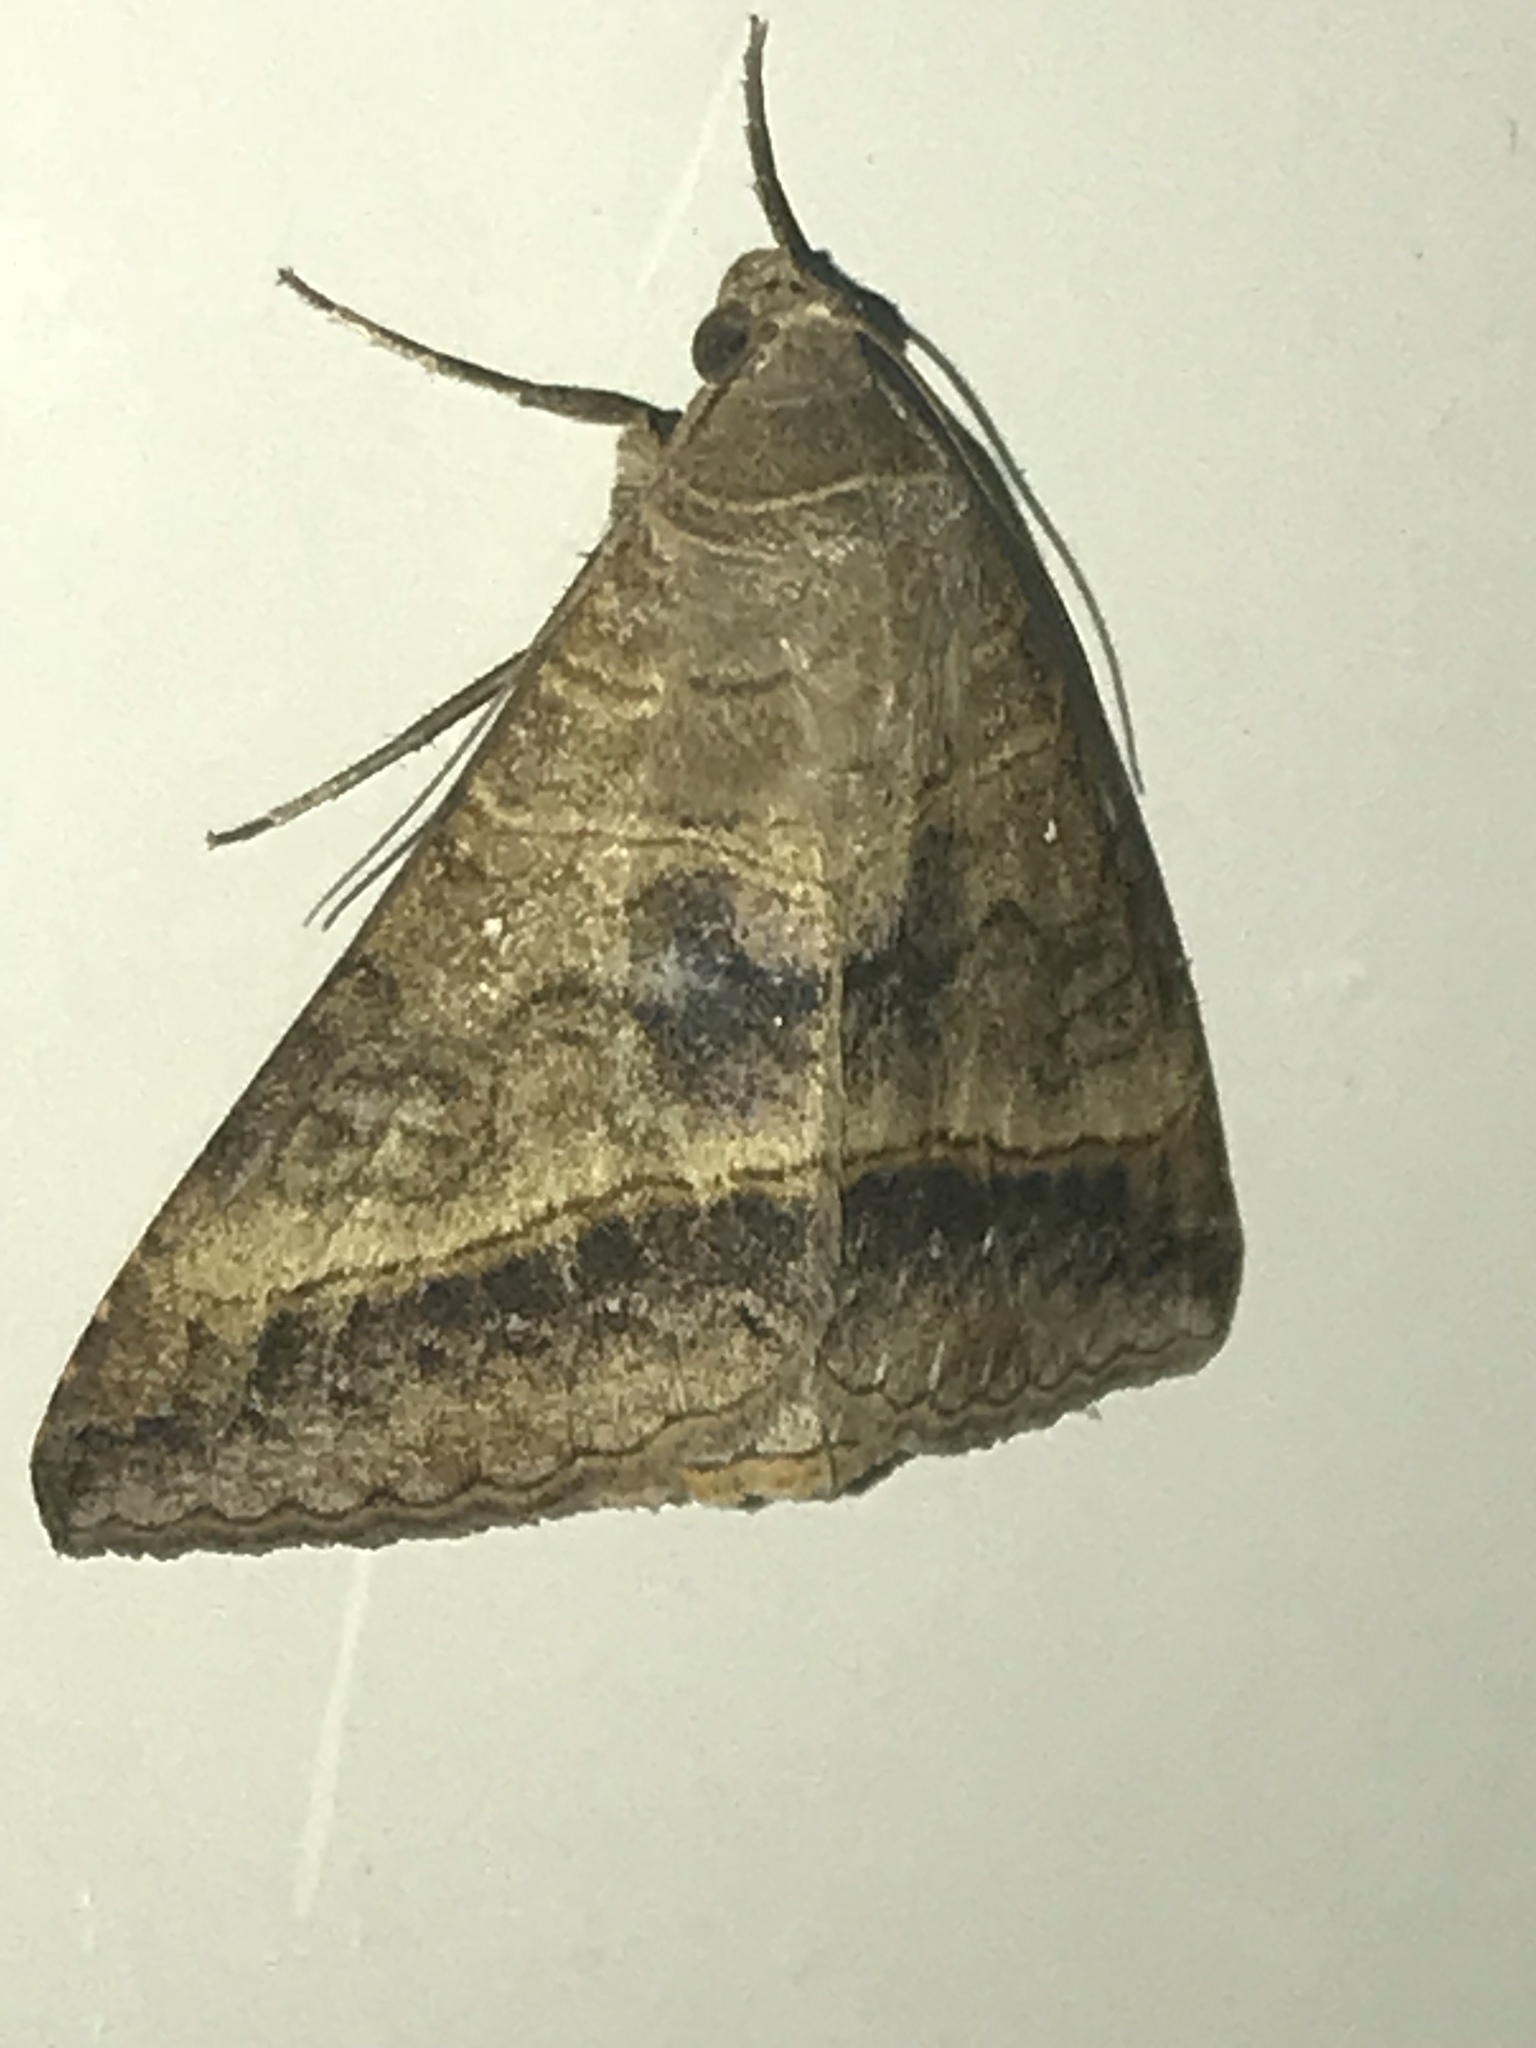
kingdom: Animalia
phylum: Arthropoda
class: Insecta
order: Lepidoptera
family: Erebidae
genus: Mocis
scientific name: Mocis marcida
